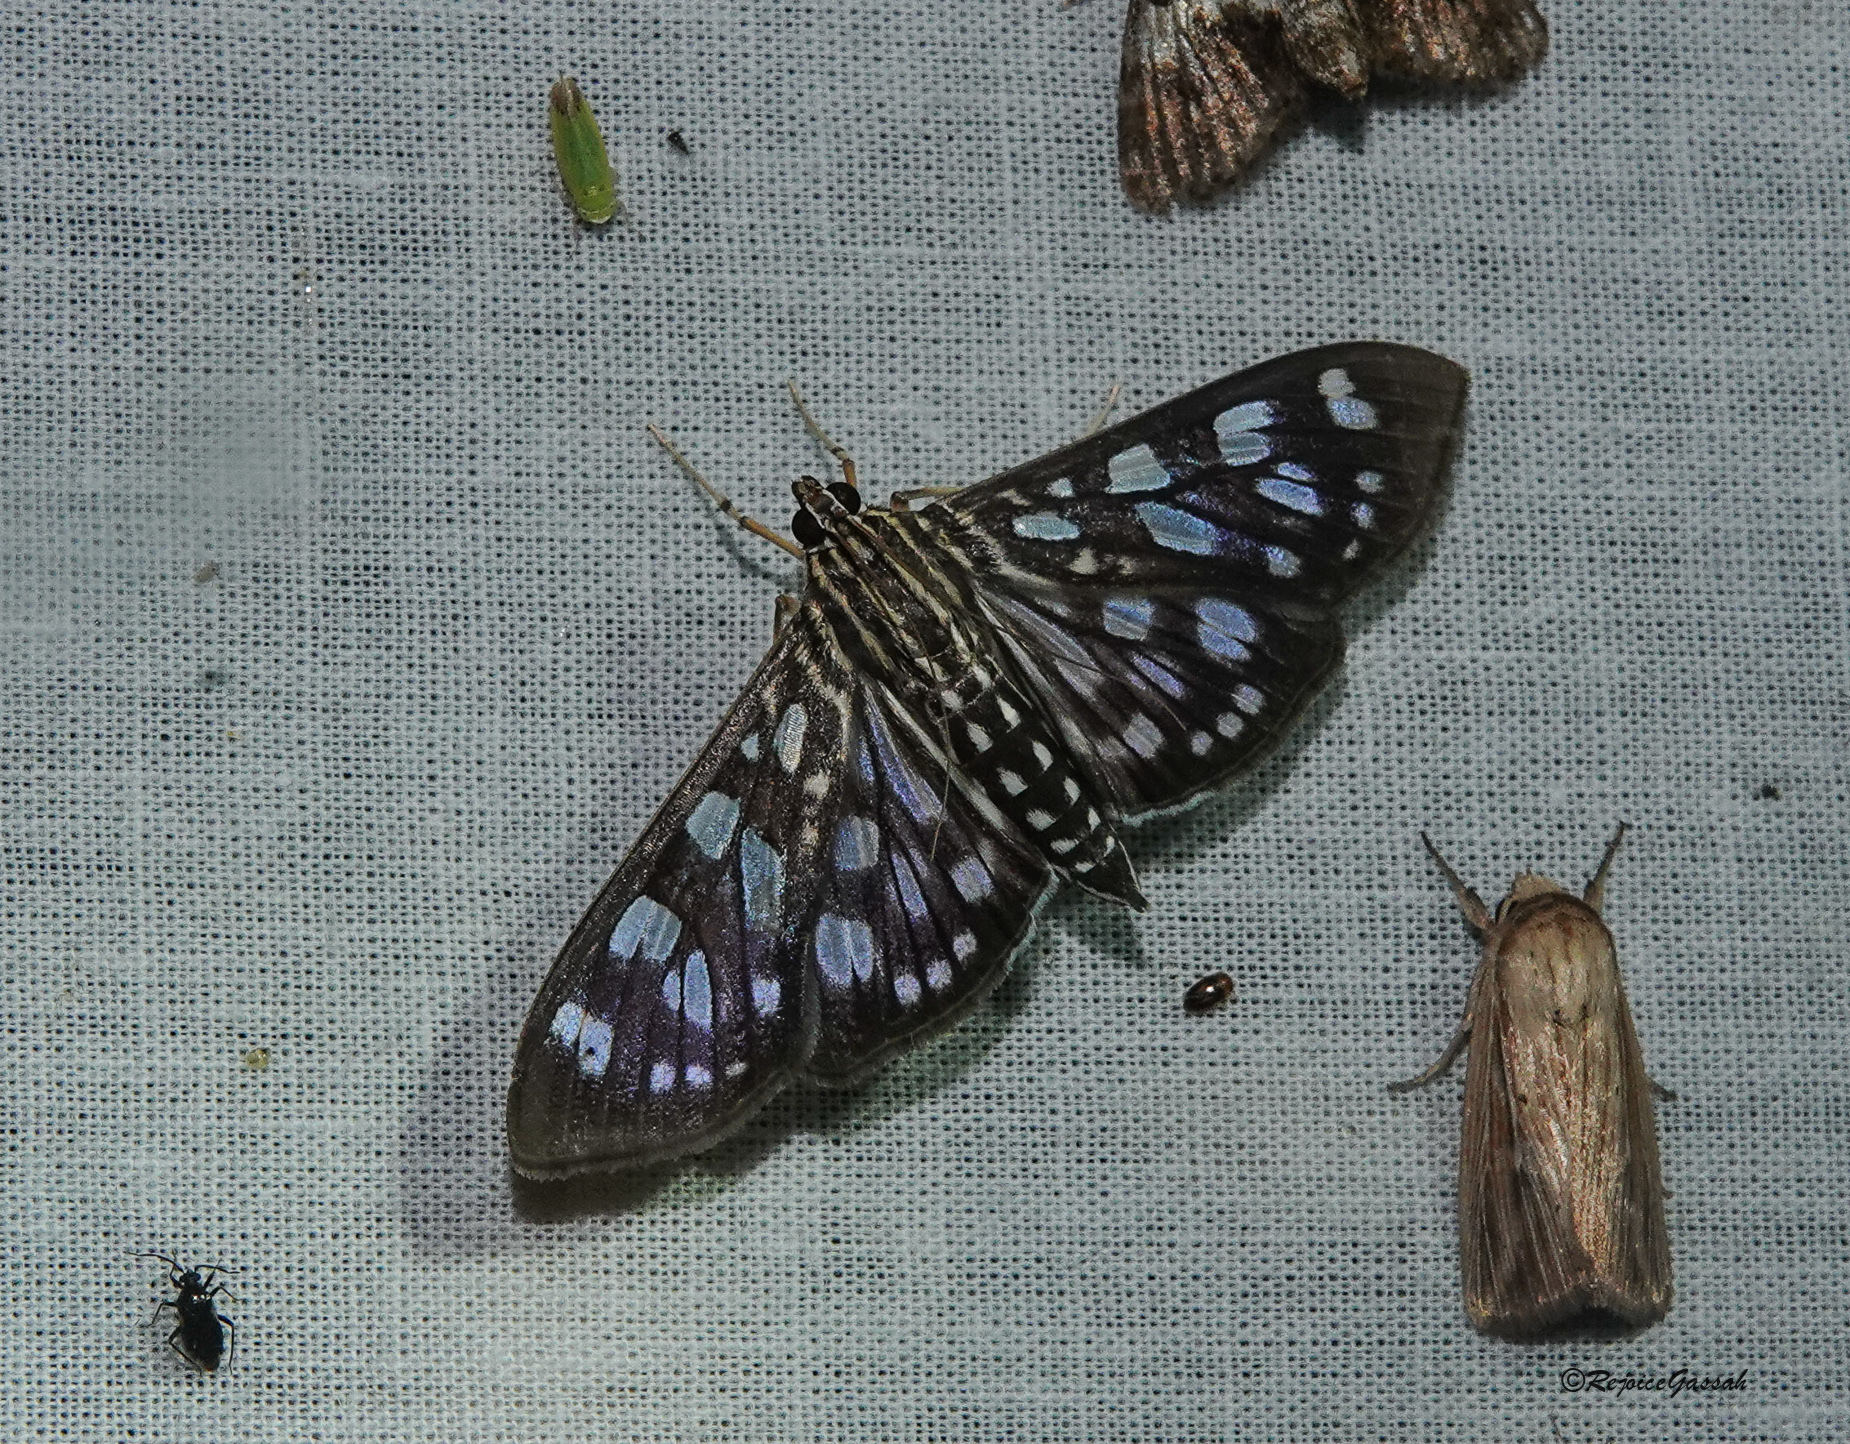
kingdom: Animalia
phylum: Arthropoda
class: Insecta
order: Lepidoptera
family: Crambidae
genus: Pygospila
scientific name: Pygospila tyres
